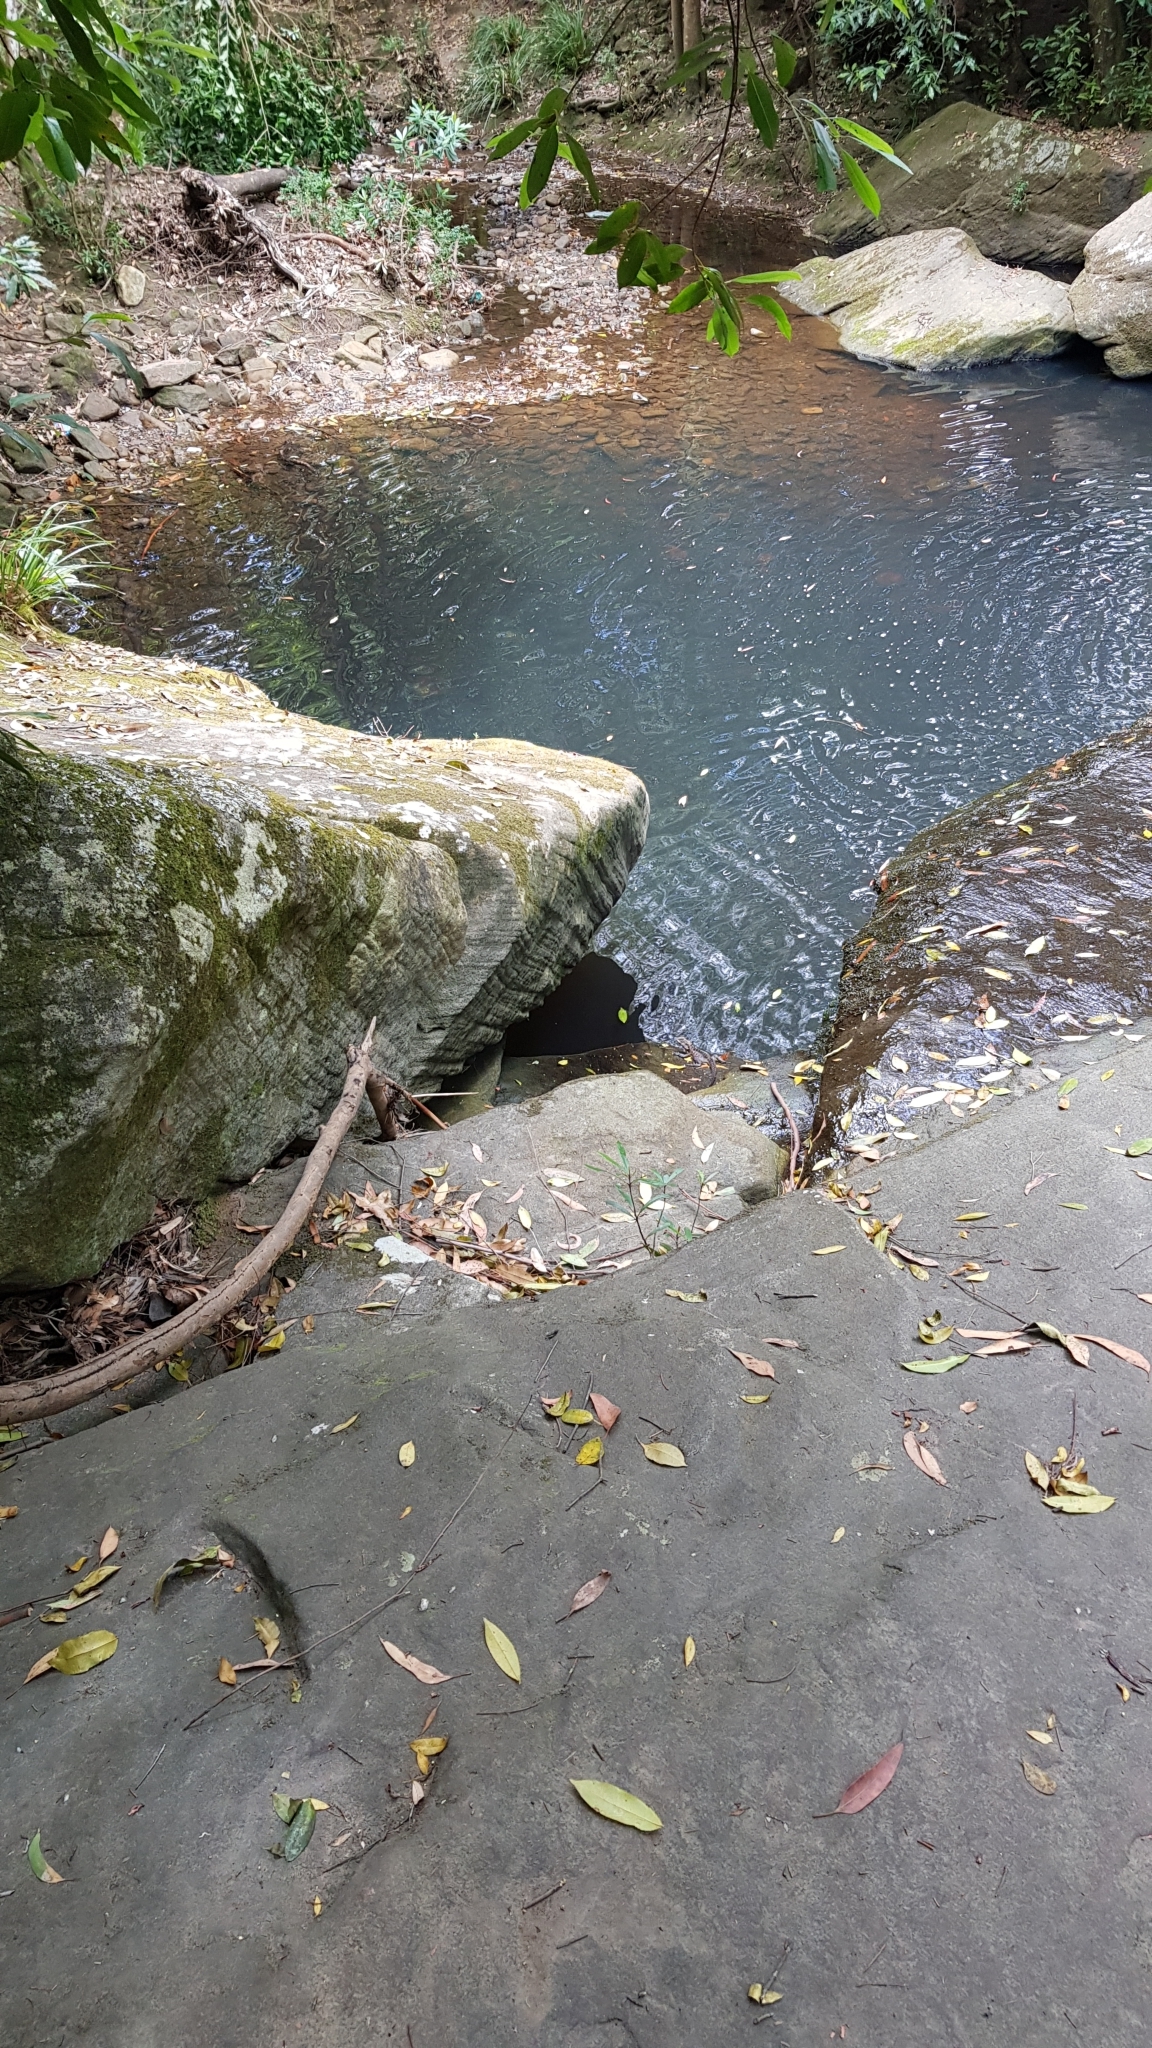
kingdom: Animalia
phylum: Chordata
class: Squamata
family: Agamidae
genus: Intellagama
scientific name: Intellagama lesueurii
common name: Eastern water dragon
